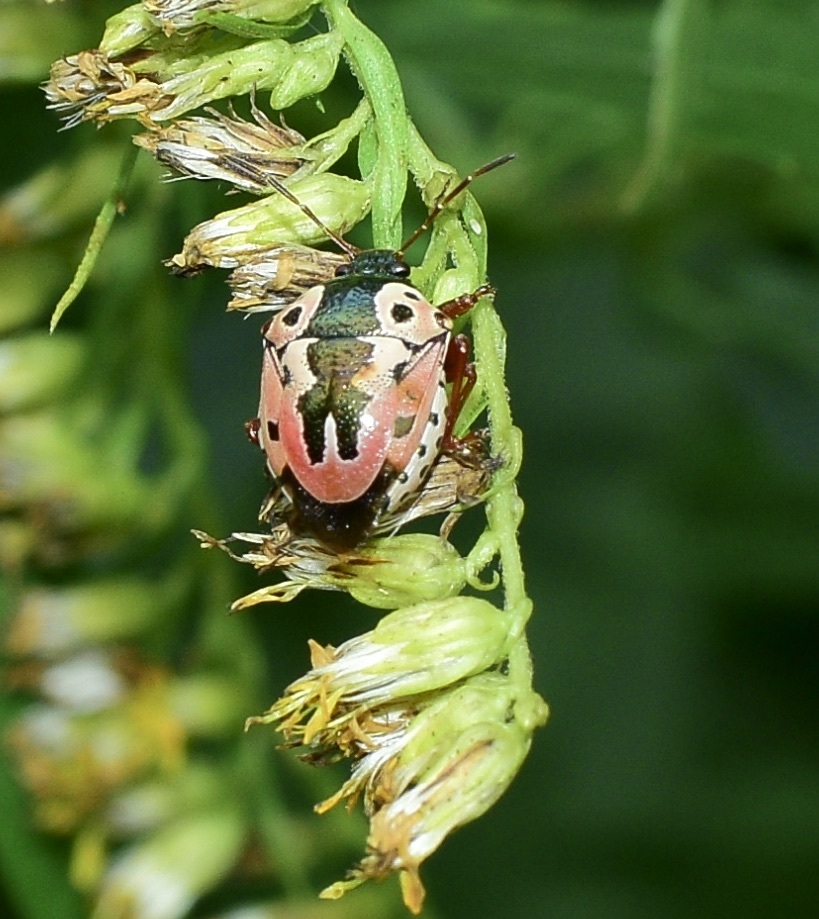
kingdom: Animalia
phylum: Arthropoda
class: Insecta
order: Hemiptera
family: Pentatomidae
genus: Stiretrus
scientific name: Stiretrus anchorago
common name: Anchor stink bug
